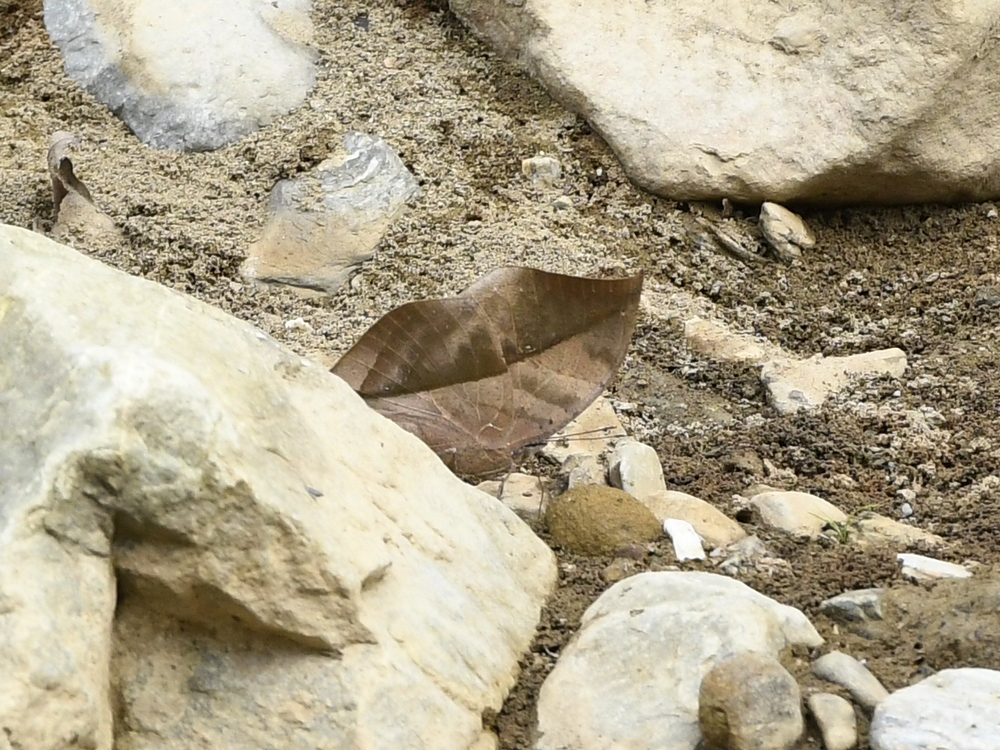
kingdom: Animalia
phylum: Arthropoda
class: Insecta
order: Lepidoptera
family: Nymphalidae
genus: Kallima
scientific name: Kallima inachus
